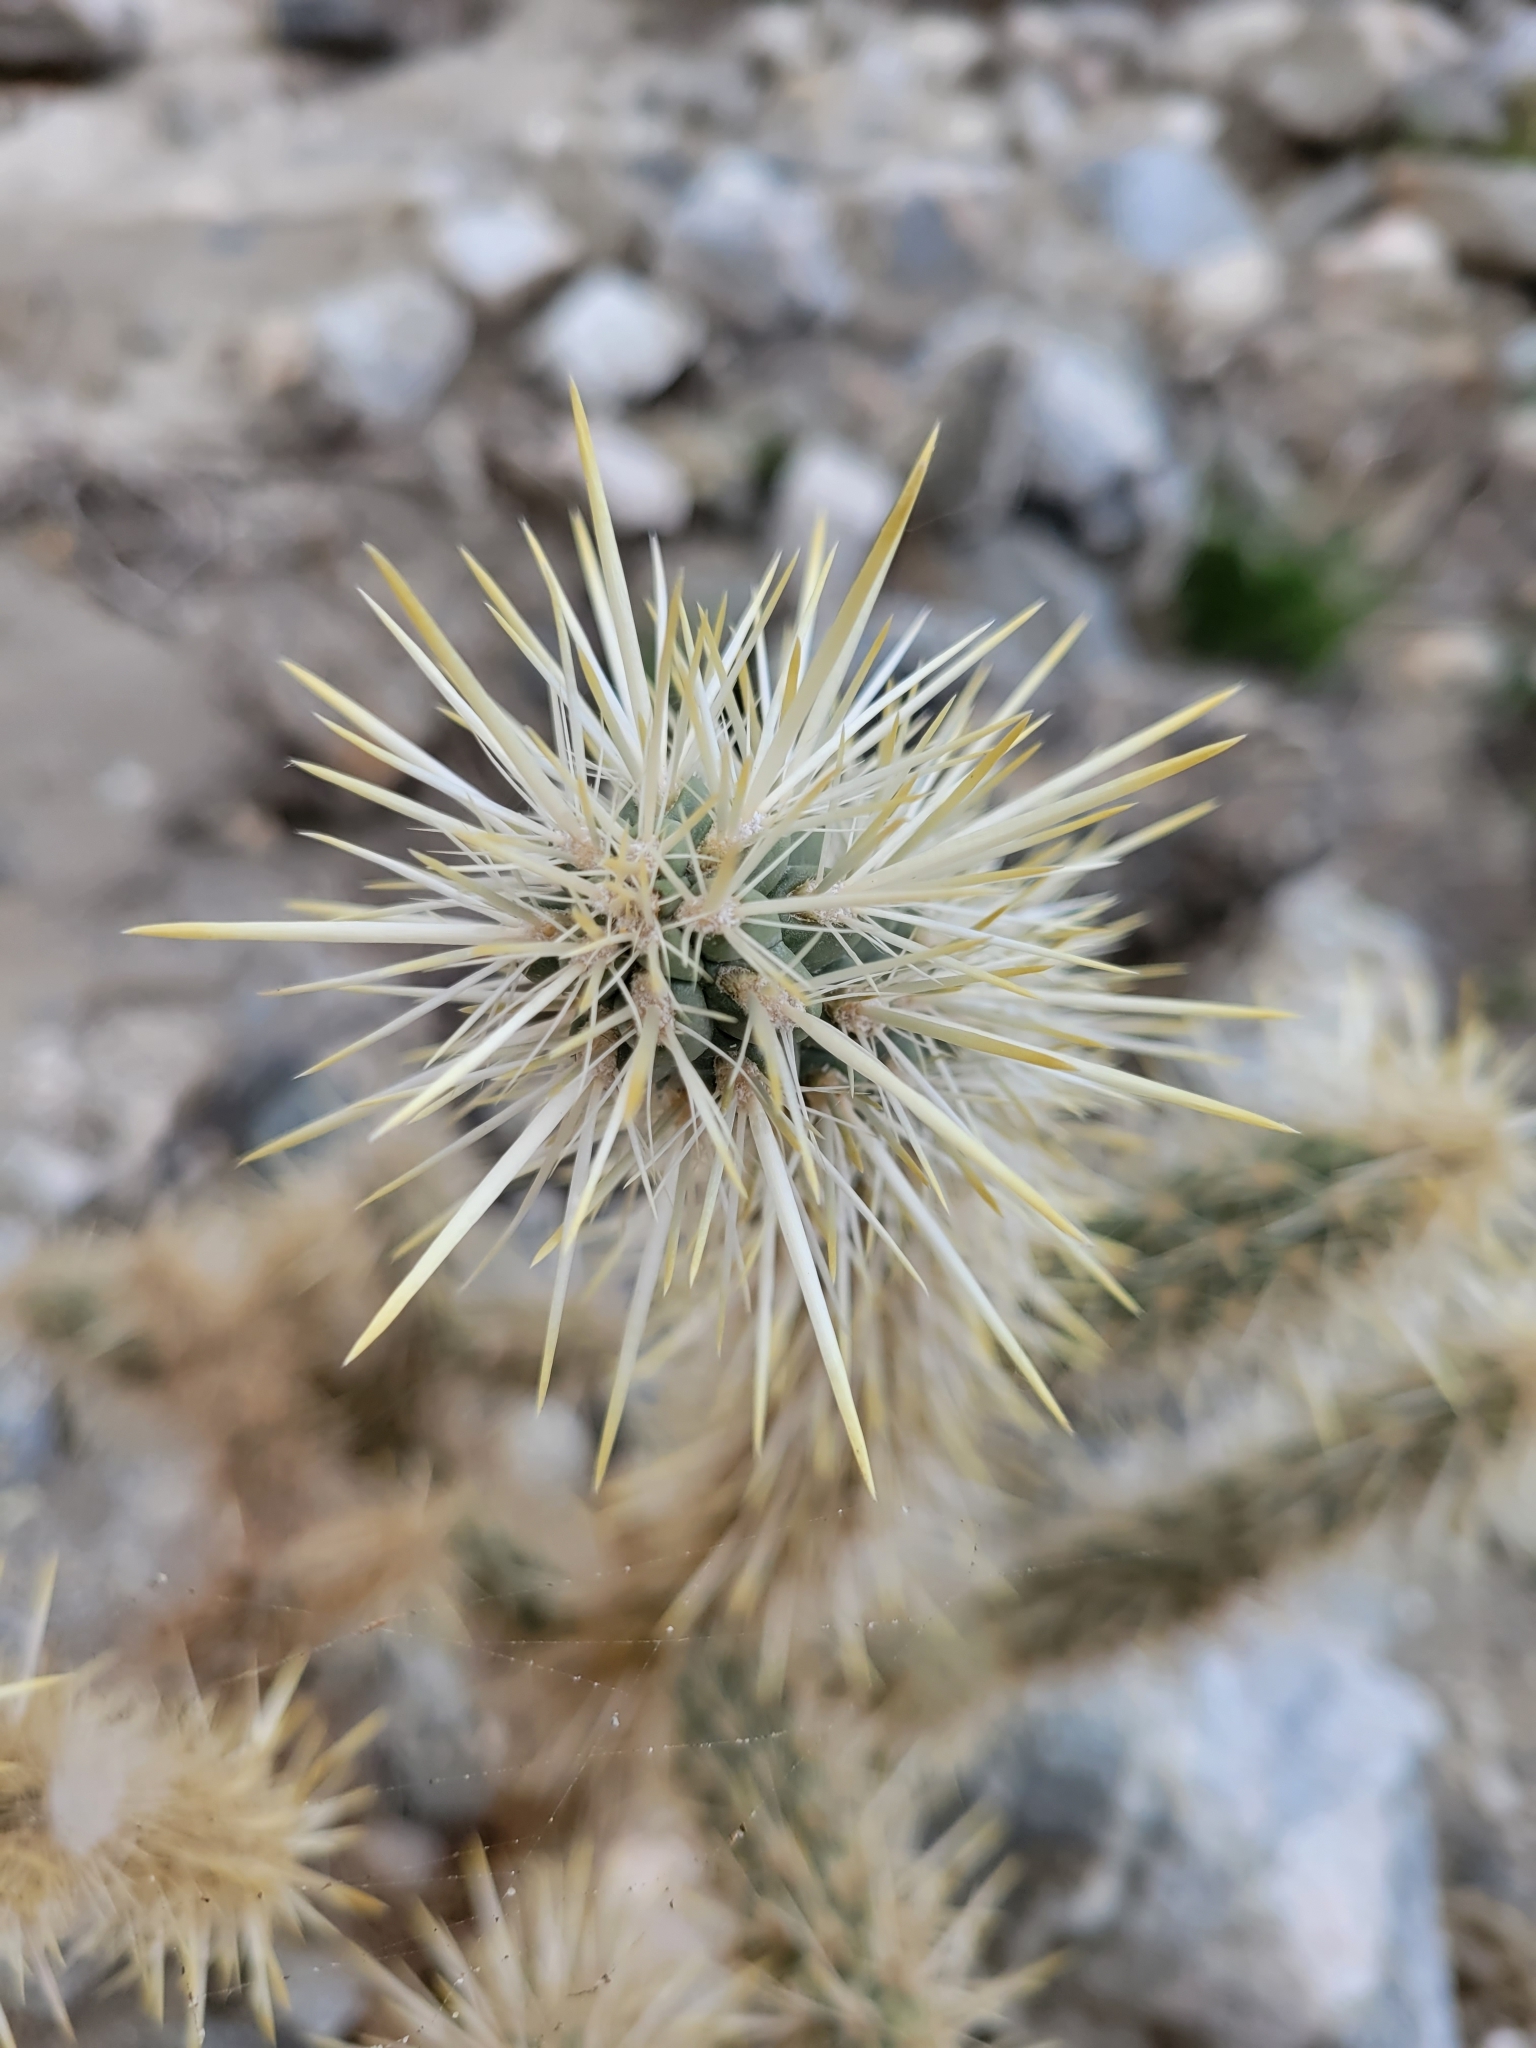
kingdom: Plantae
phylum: Tracheophyta
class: Magnoliopsida
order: Caryophyllales
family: Cactaceae
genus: Cylindropuntia
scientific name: Cylindropuntia echinocarpa
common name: Ground cholla
